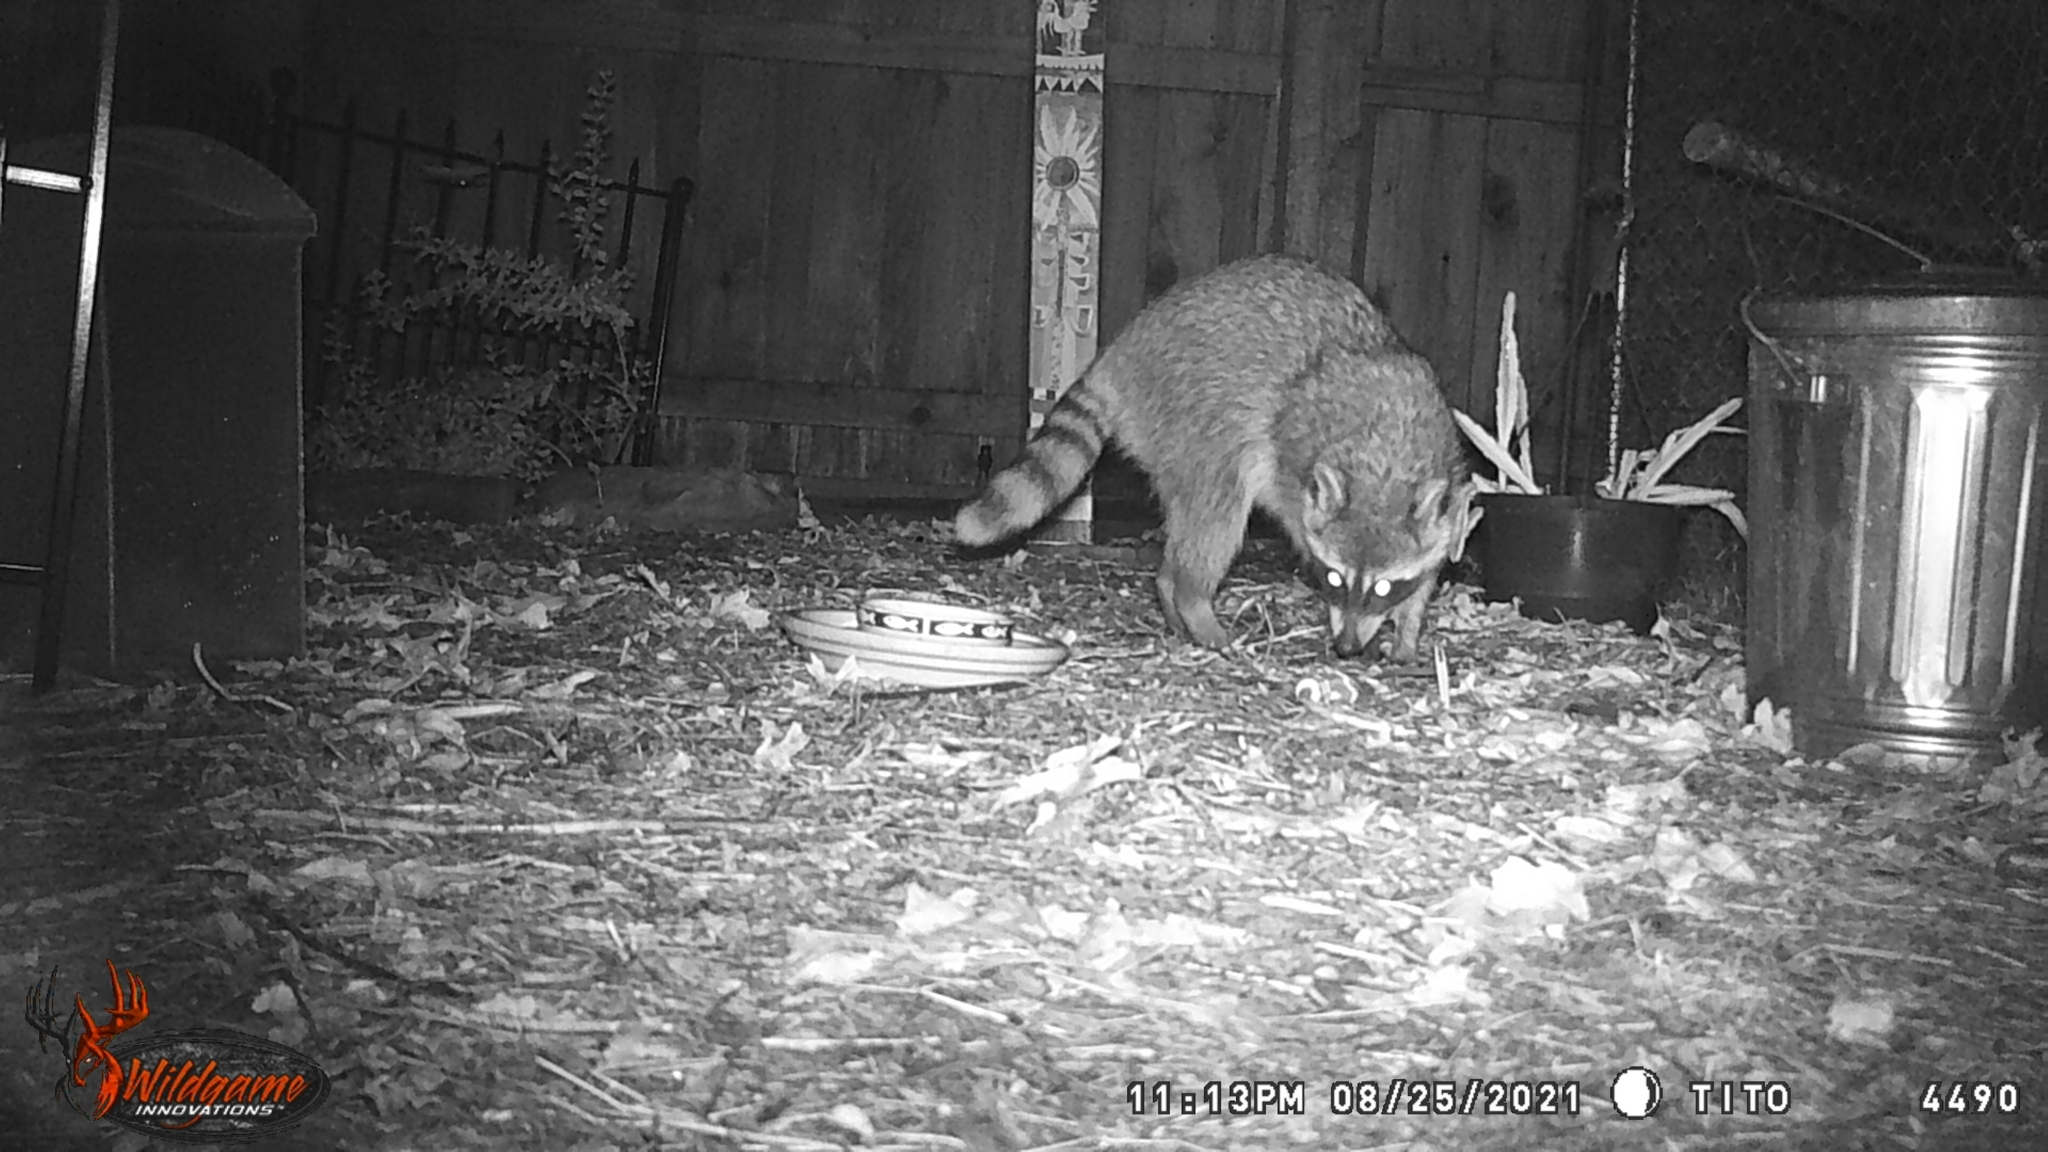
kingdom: Animalia
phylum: Chordata
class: Mammalia
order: Carnivora
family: Procyonidae
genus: Procyon
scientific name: Procyon lotor
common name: Raccoon
